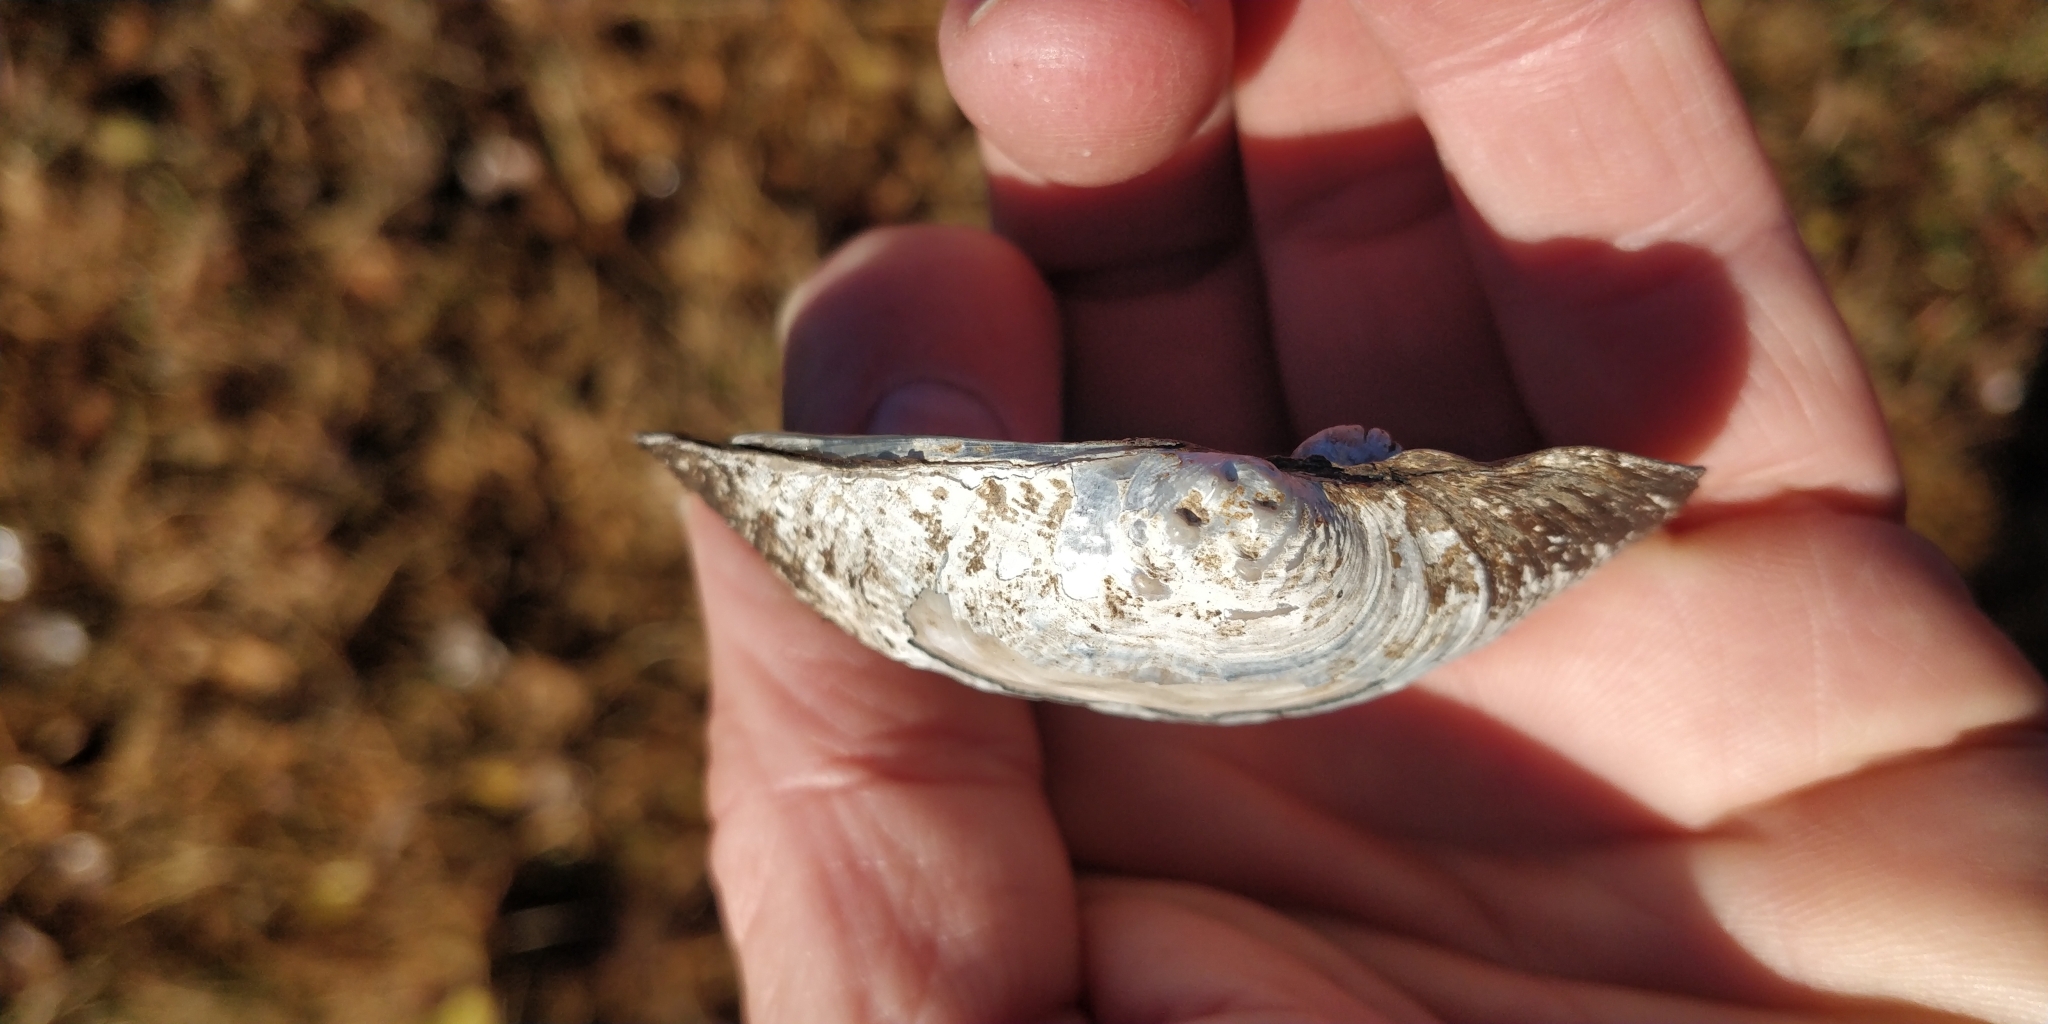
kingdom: Animalia
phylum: Mollusca
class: Bivalvia
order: Unionida
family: Unionidae
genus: Arcidens
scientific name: Arcidens confragosus
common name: Rock pocketbook
